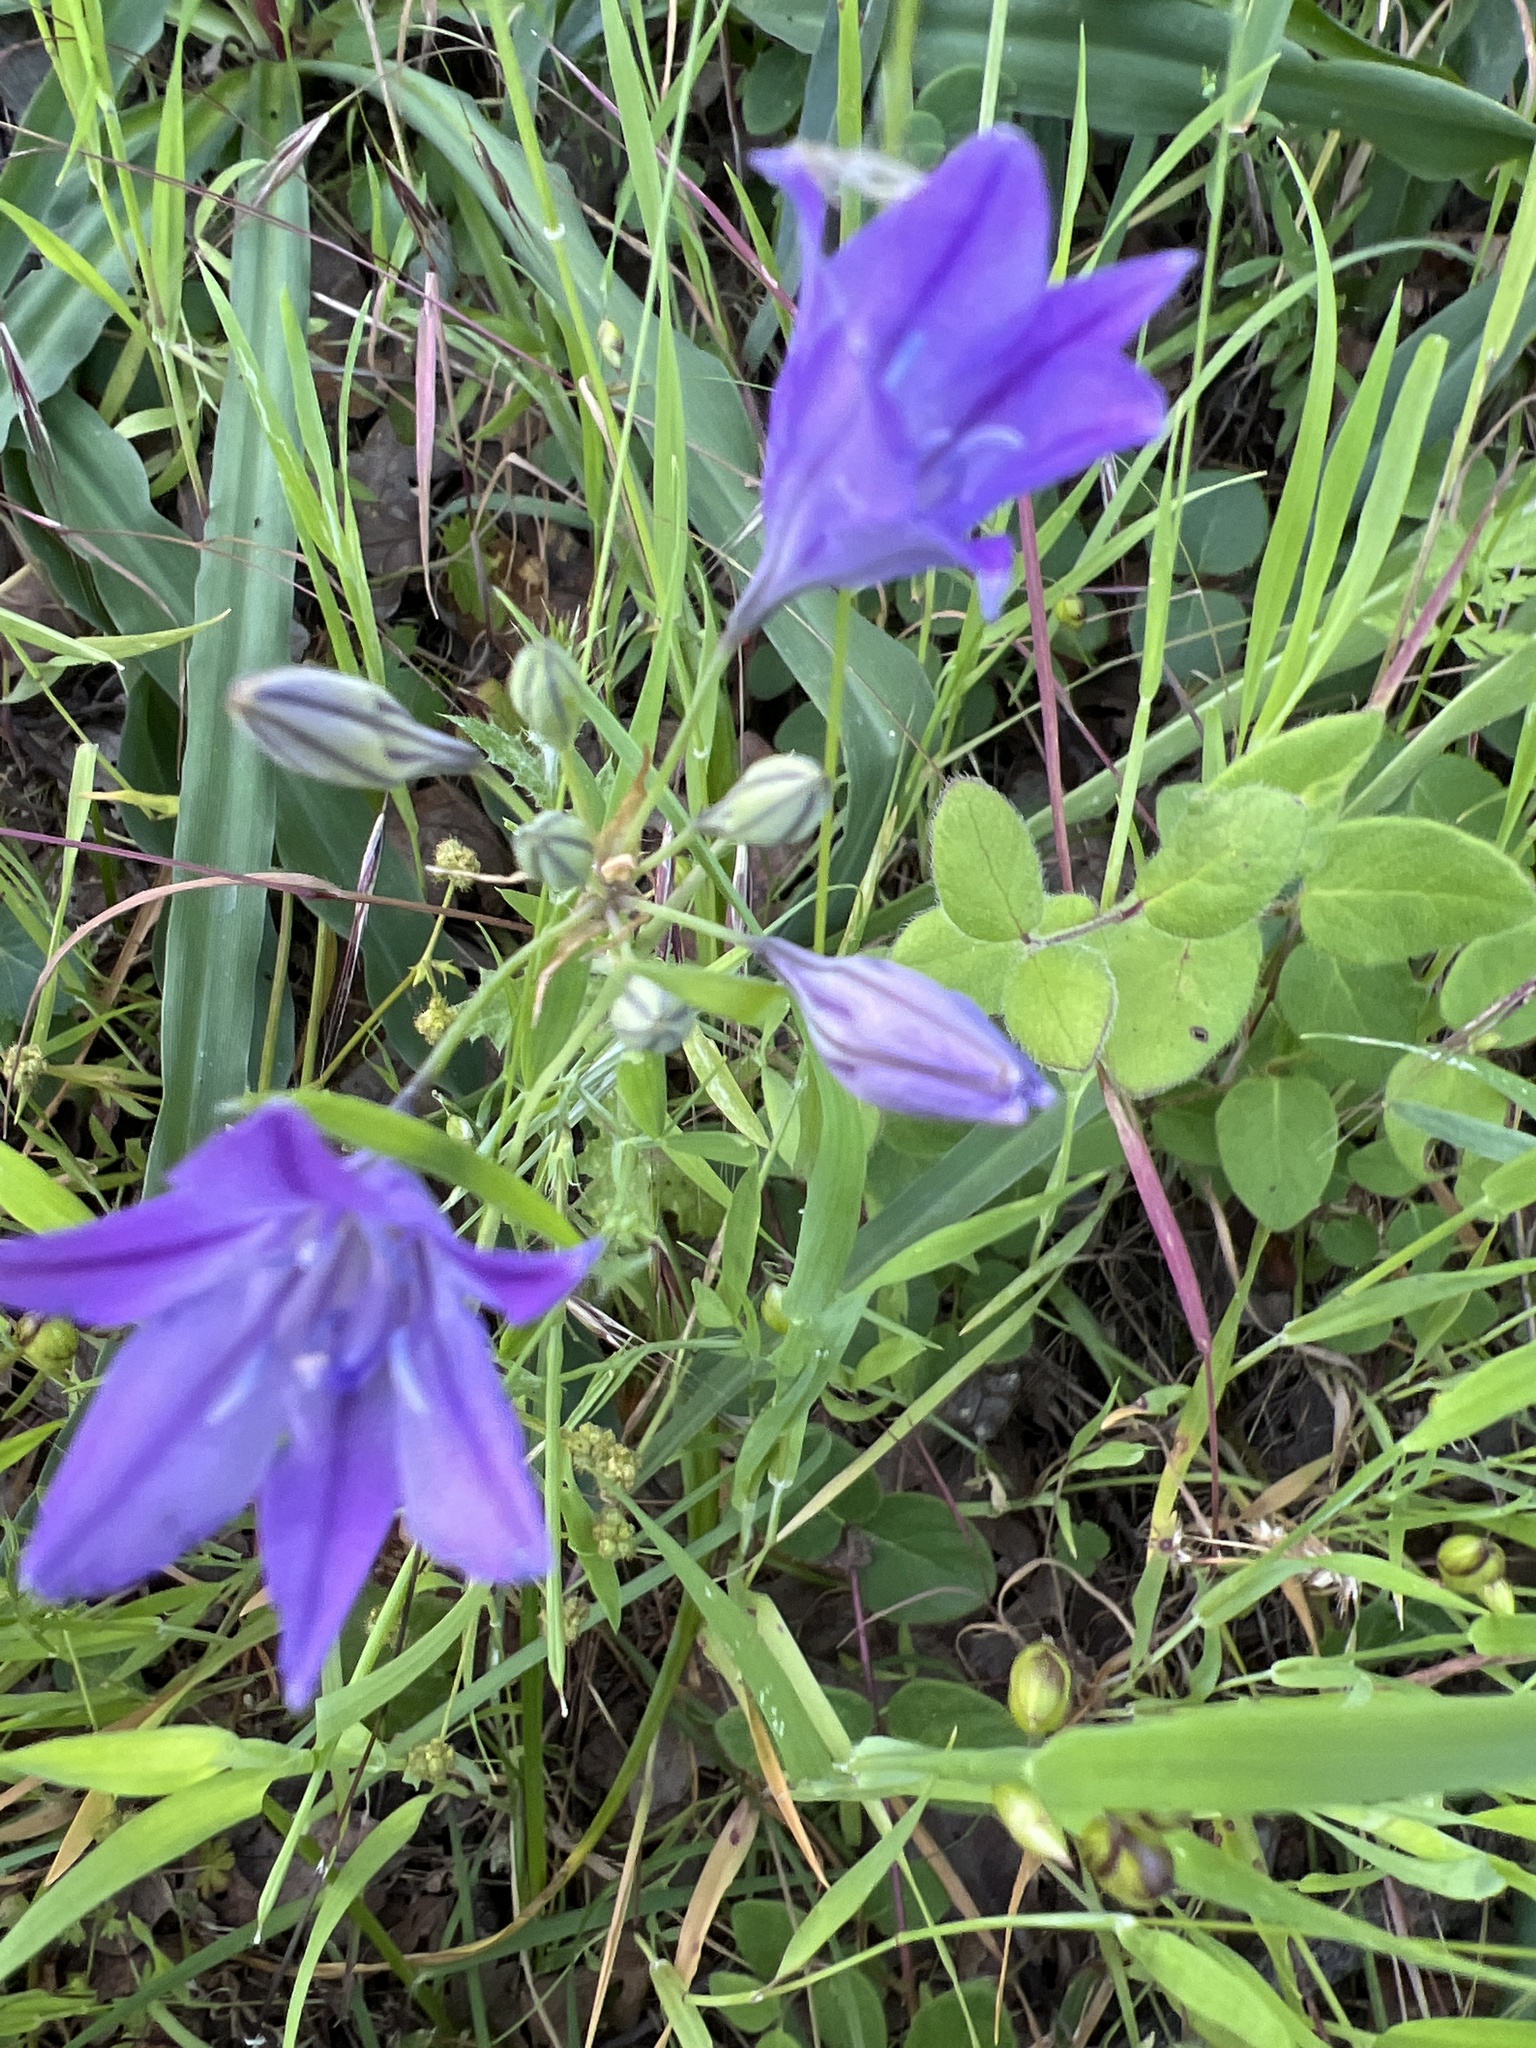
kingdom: Plantae
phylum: Tracheophyta
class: Liliopsida
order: Asparagales
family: Asparagaceae
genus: Triteleia
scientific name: Triteleia laxa
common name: Triplet-lily
